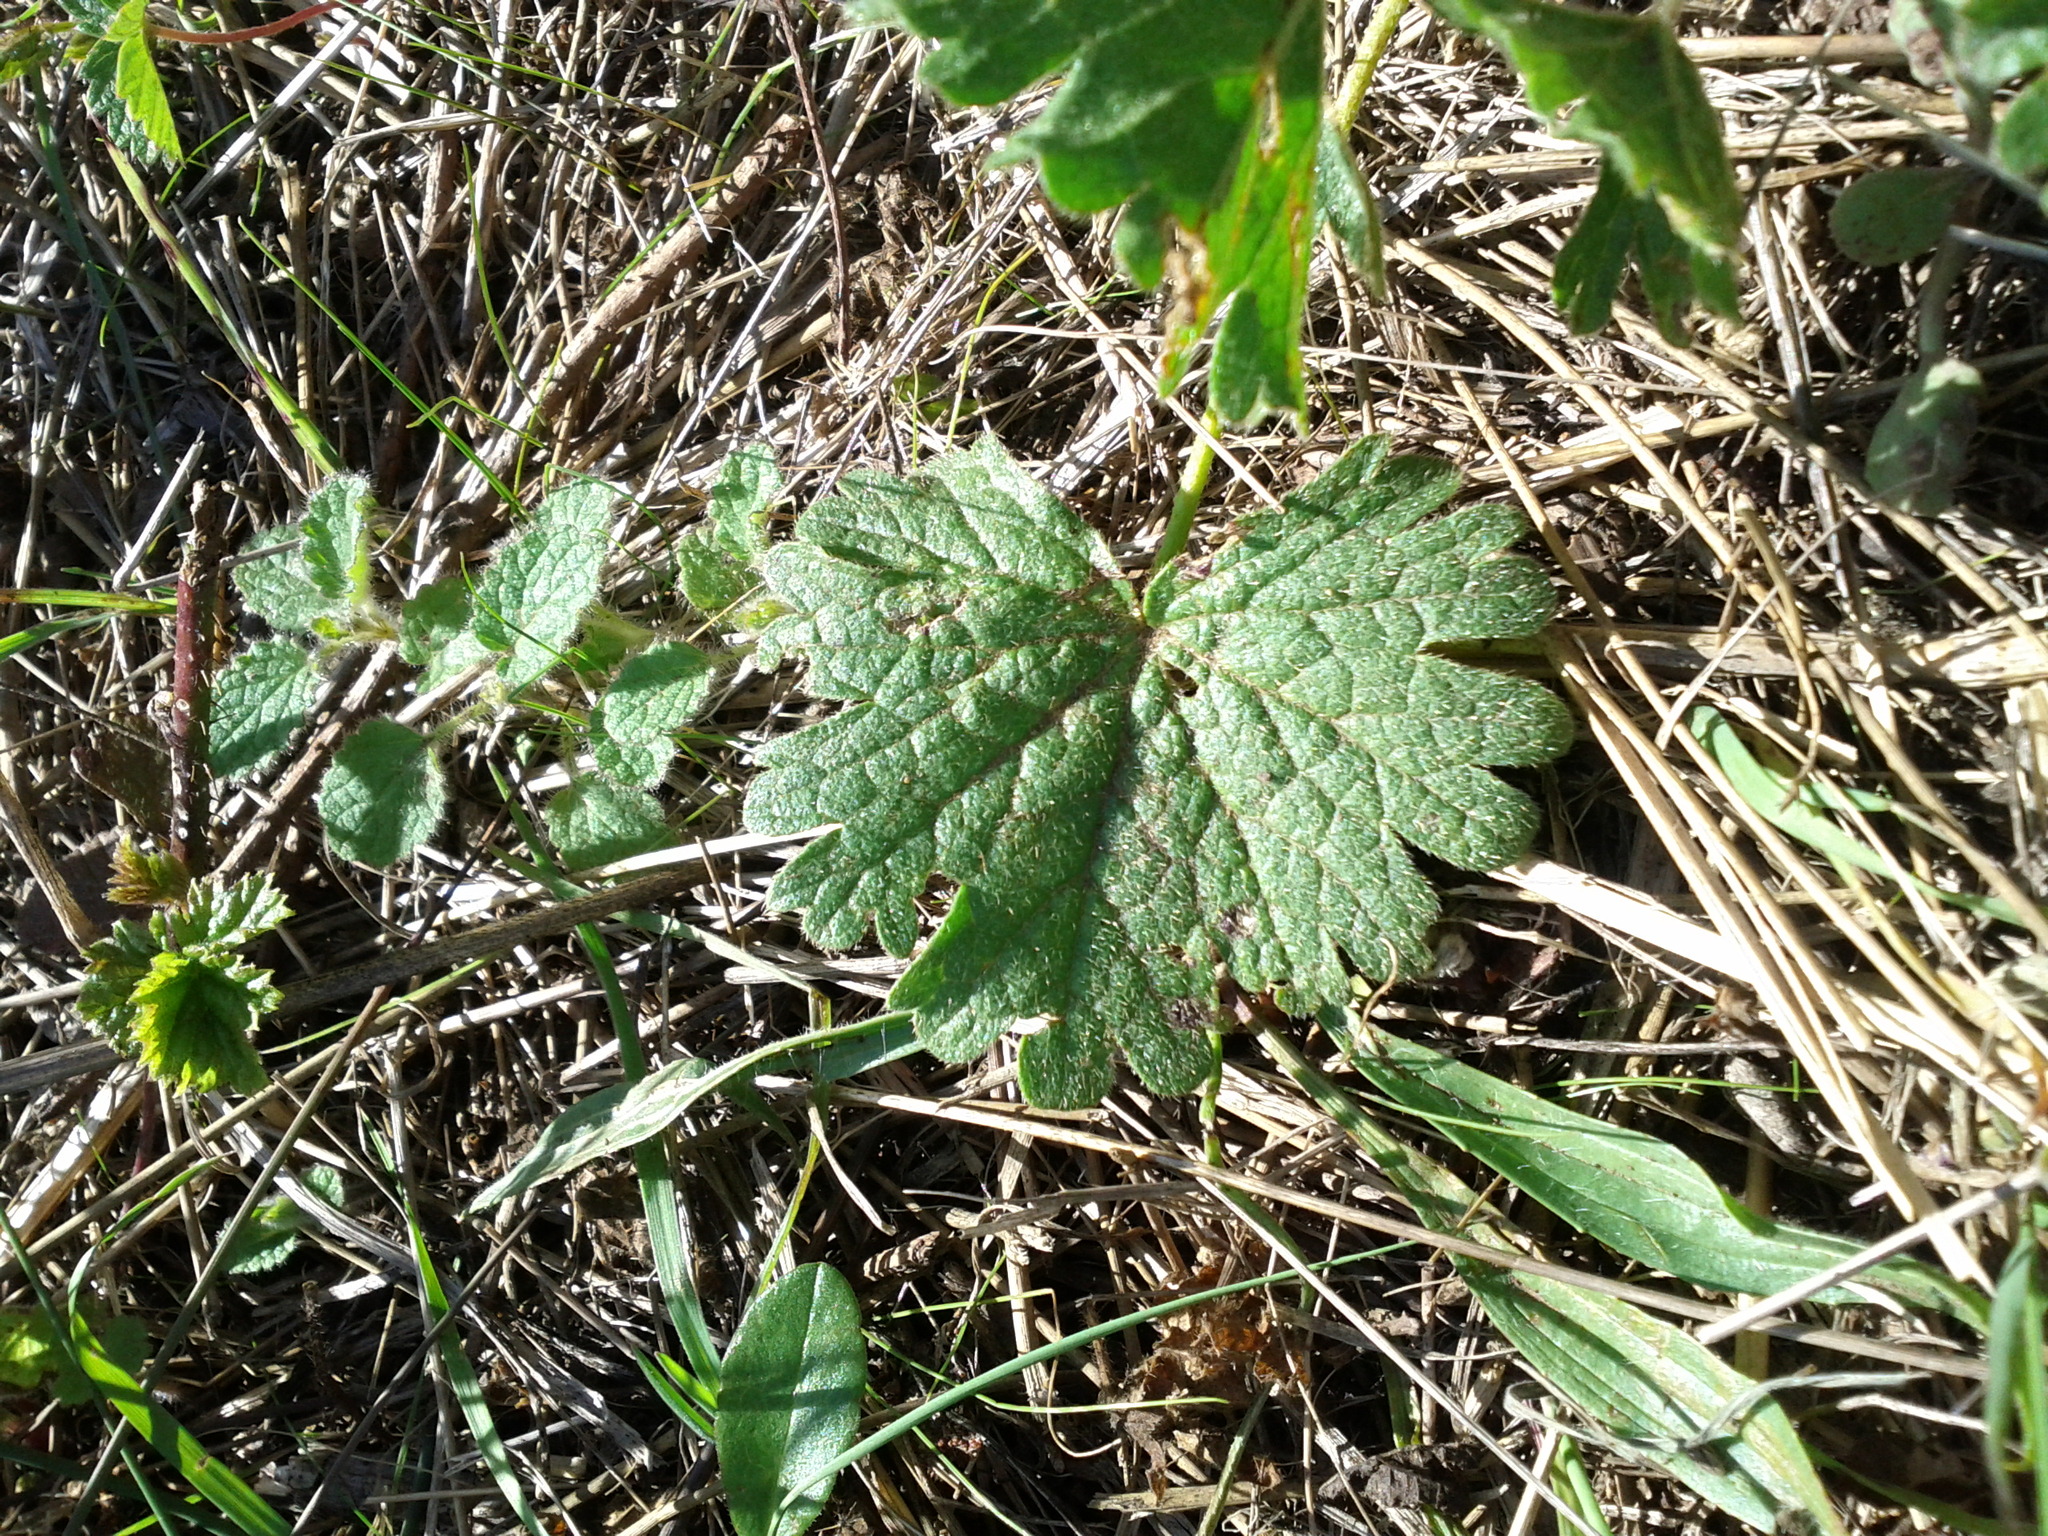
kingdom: Plantae
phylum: Tracheophyta
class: Magnoliopsida
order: Malvales
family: Malvaceae
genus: Sidalcea
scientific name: Sidalcea malviflora
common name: Greek mallow
